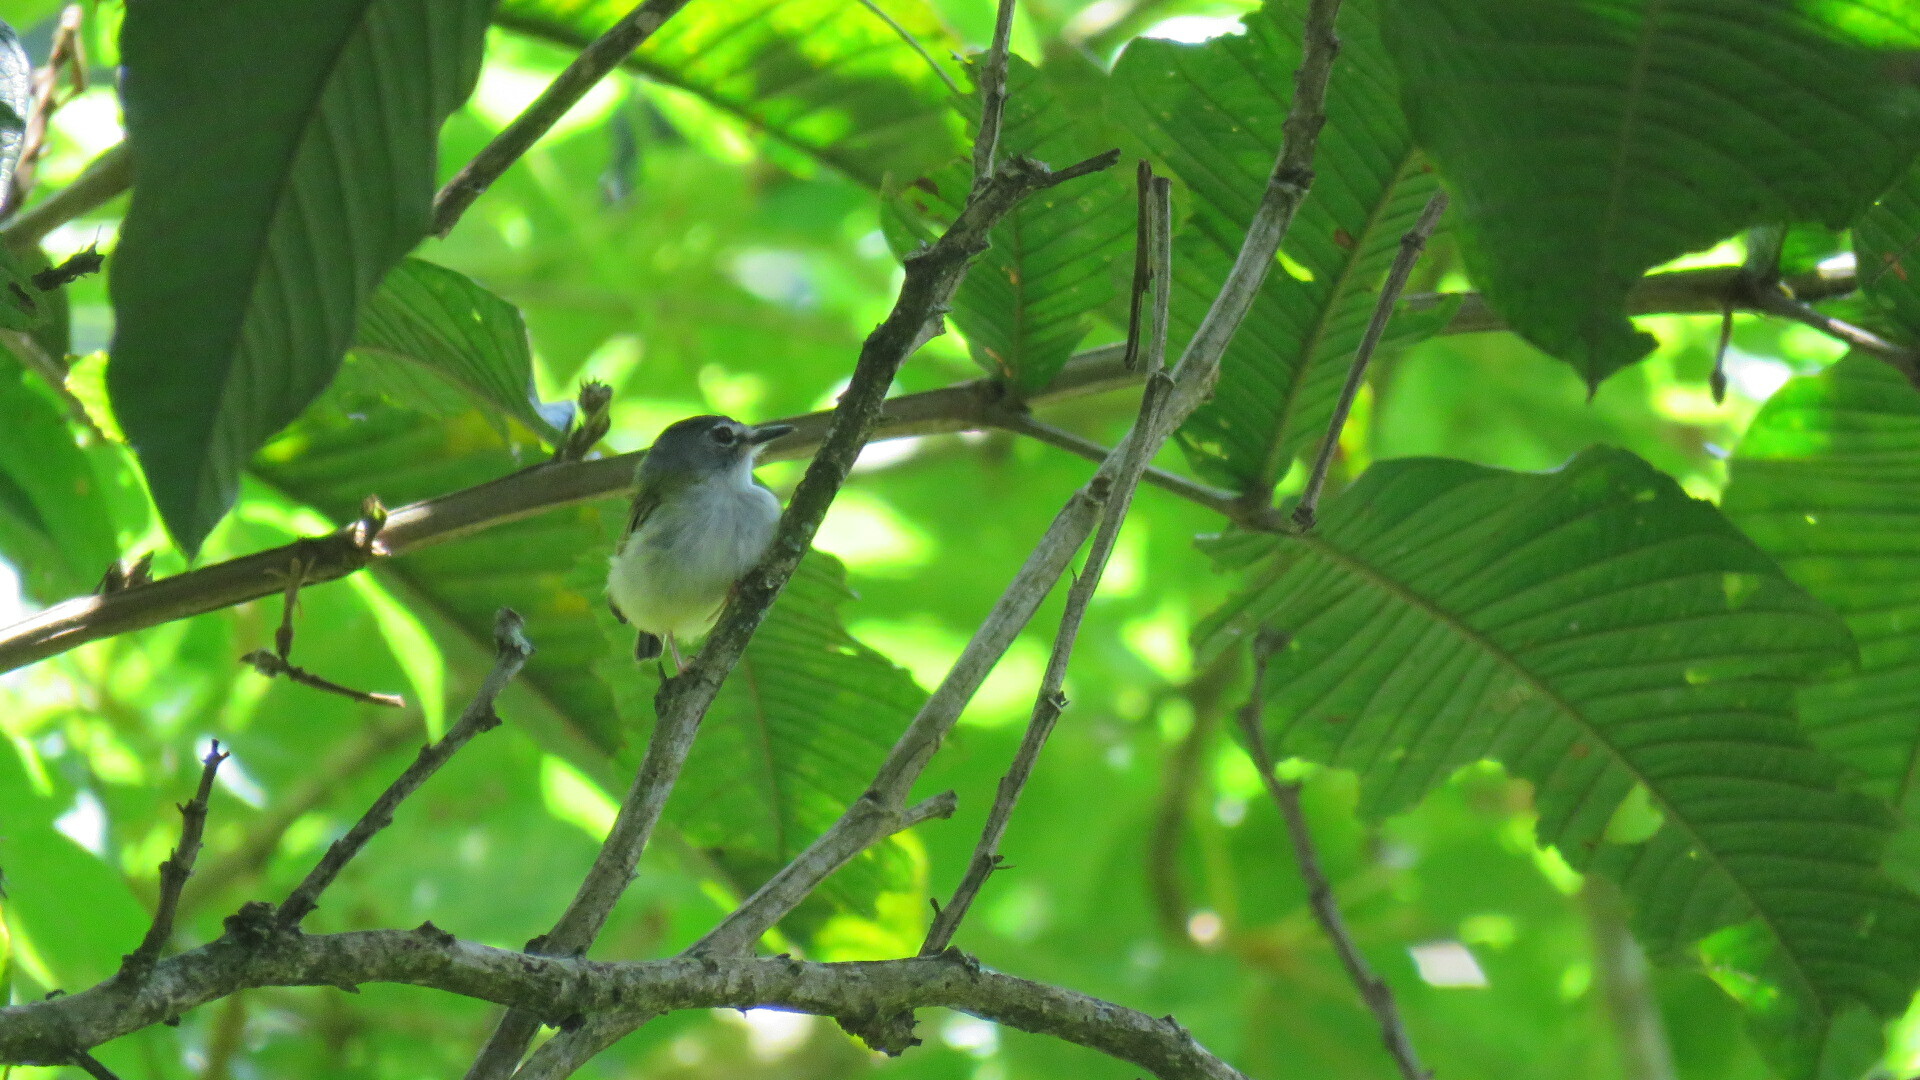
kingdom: Animalia
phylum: Chordata
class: Aves
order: Passeriformes
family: Tyrannidae
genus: Myiornis
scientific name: Myiornis atricapillus
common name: Black-capped pygmy-tyrant
